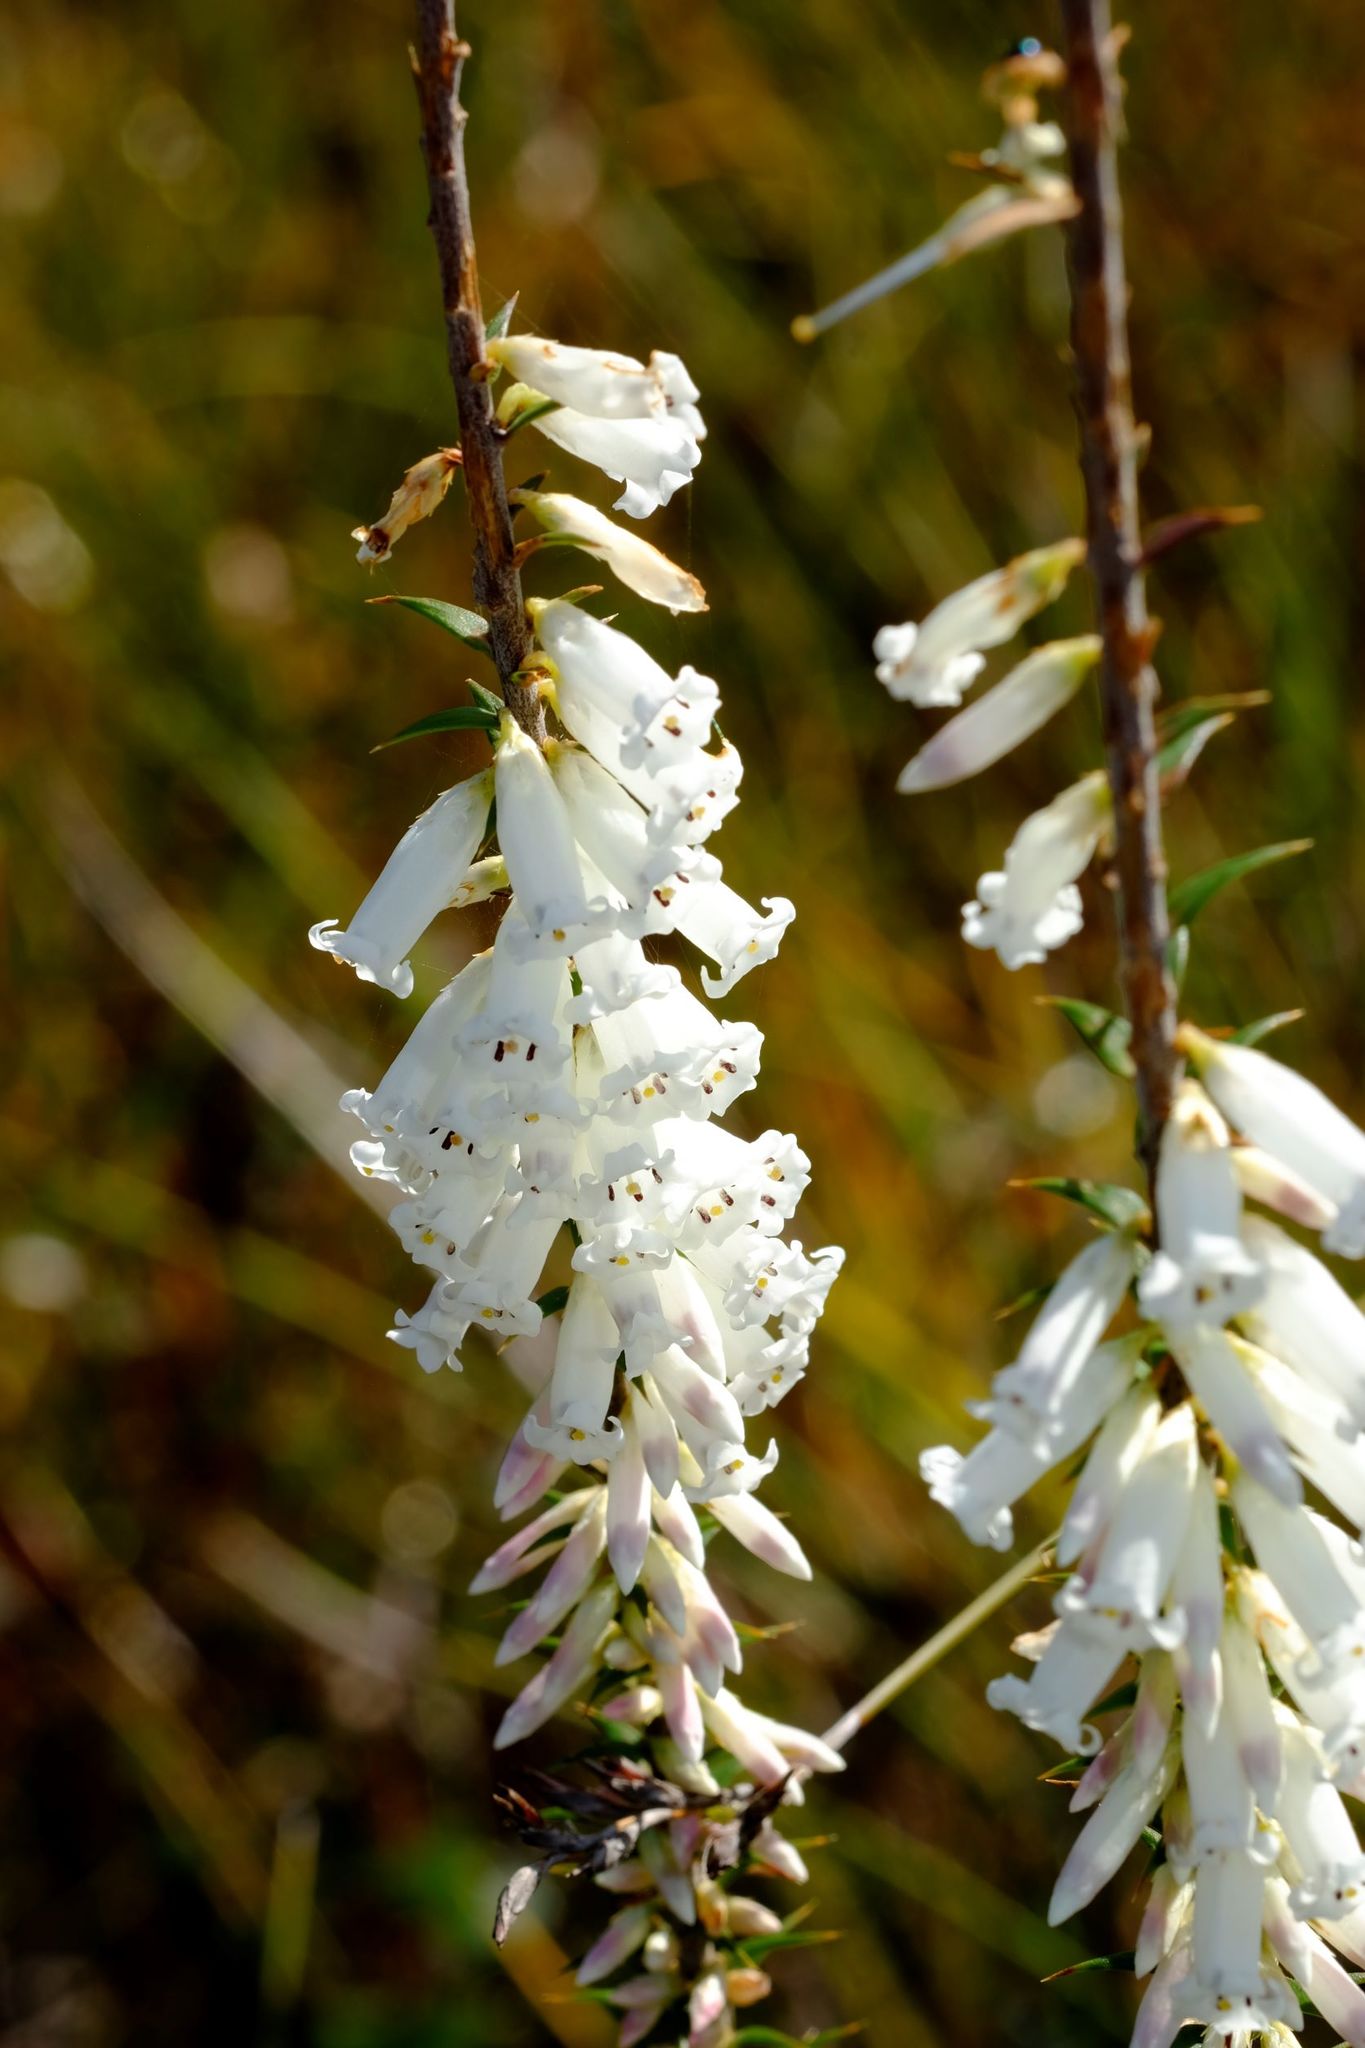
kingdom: Plantae
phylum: Tracheophyta
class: Magnoliopsida
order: Ericales
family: Ericaceae
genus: Epacris
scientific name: Epacris impressa
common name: Common-heath
